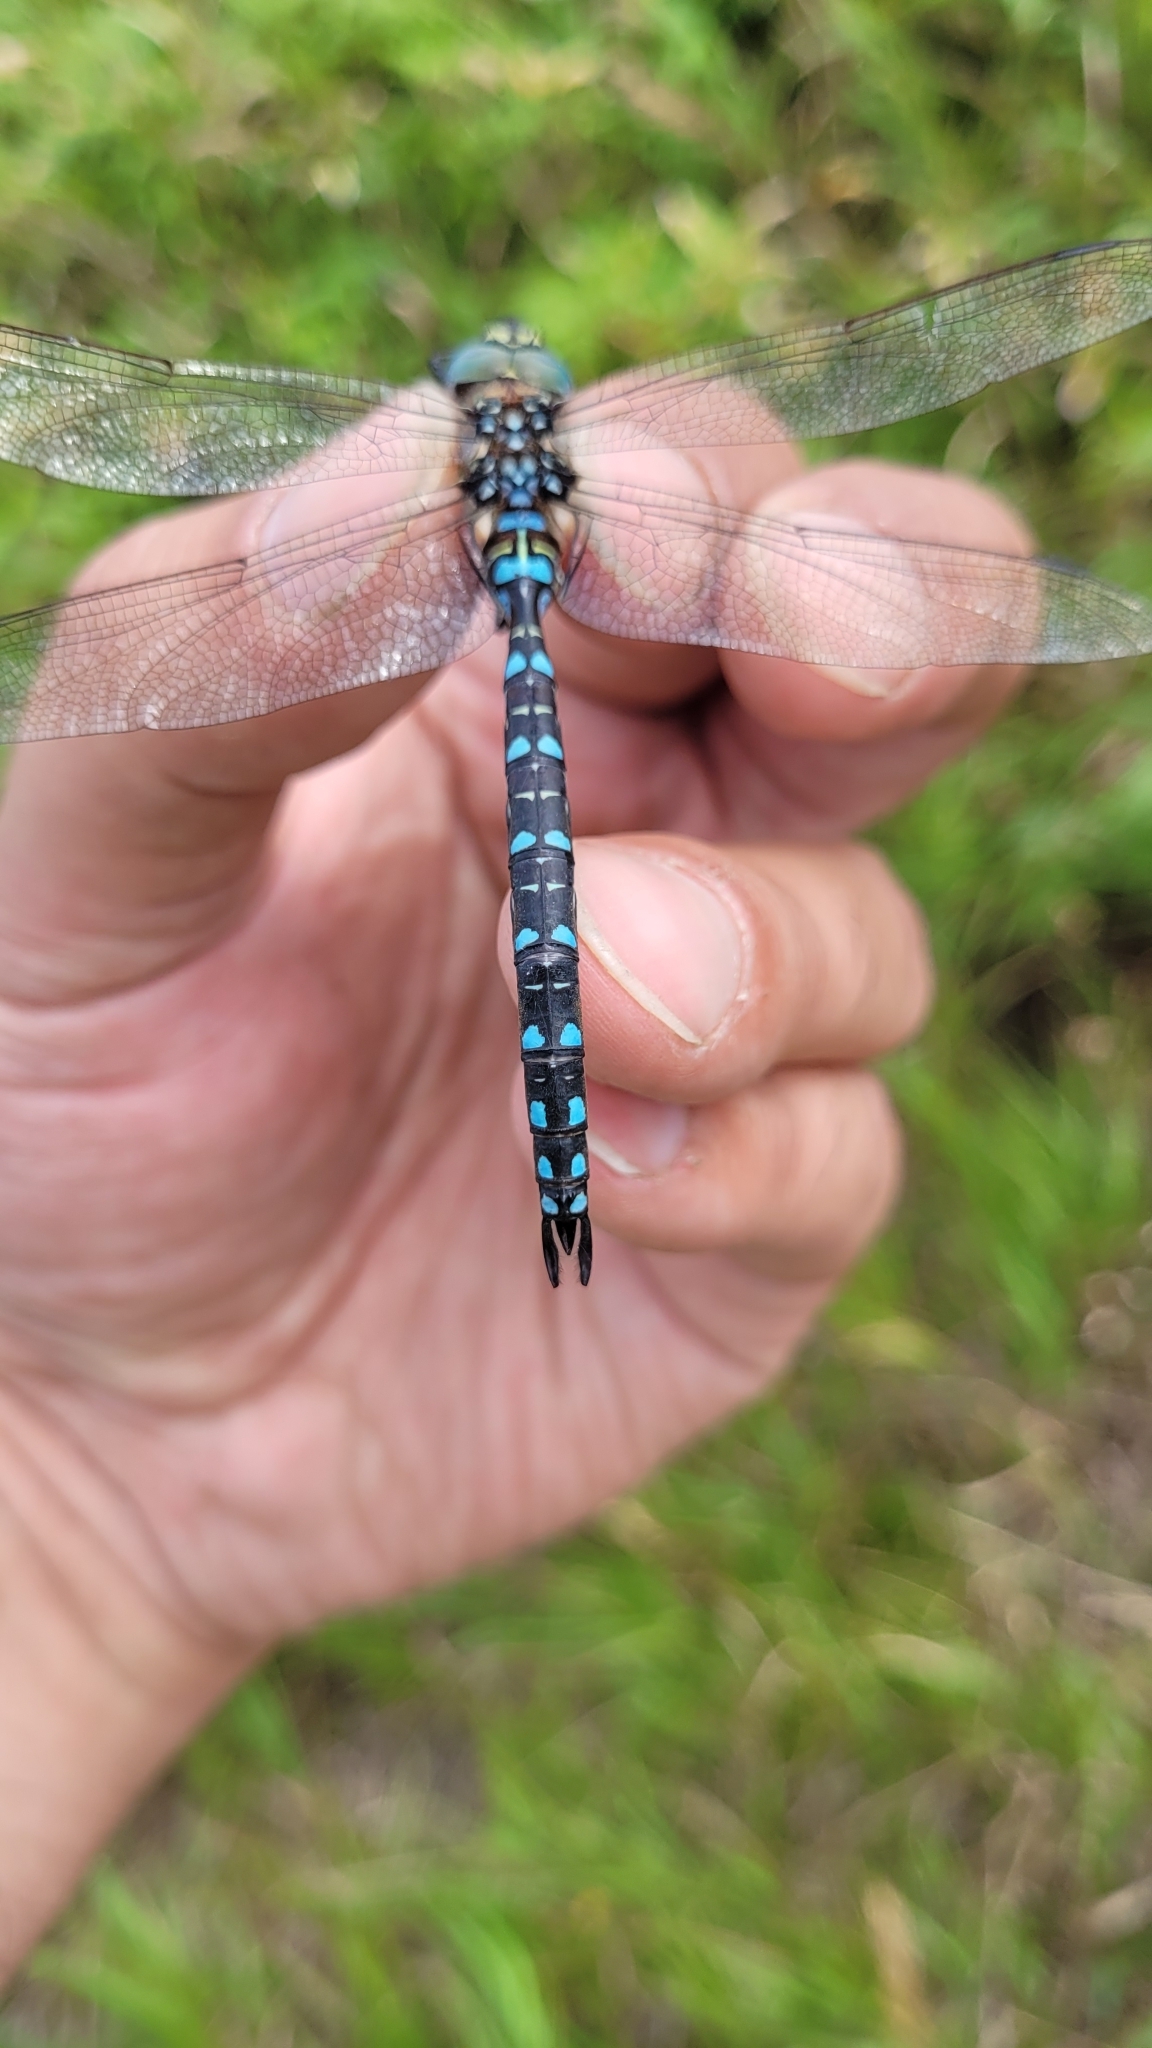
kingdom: Animalia
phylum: Arthropoda
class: Insecta
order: Odonata
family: Aeshnidae
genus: Aeshna
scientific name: Aeshna juncea
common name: Moorland hawker
